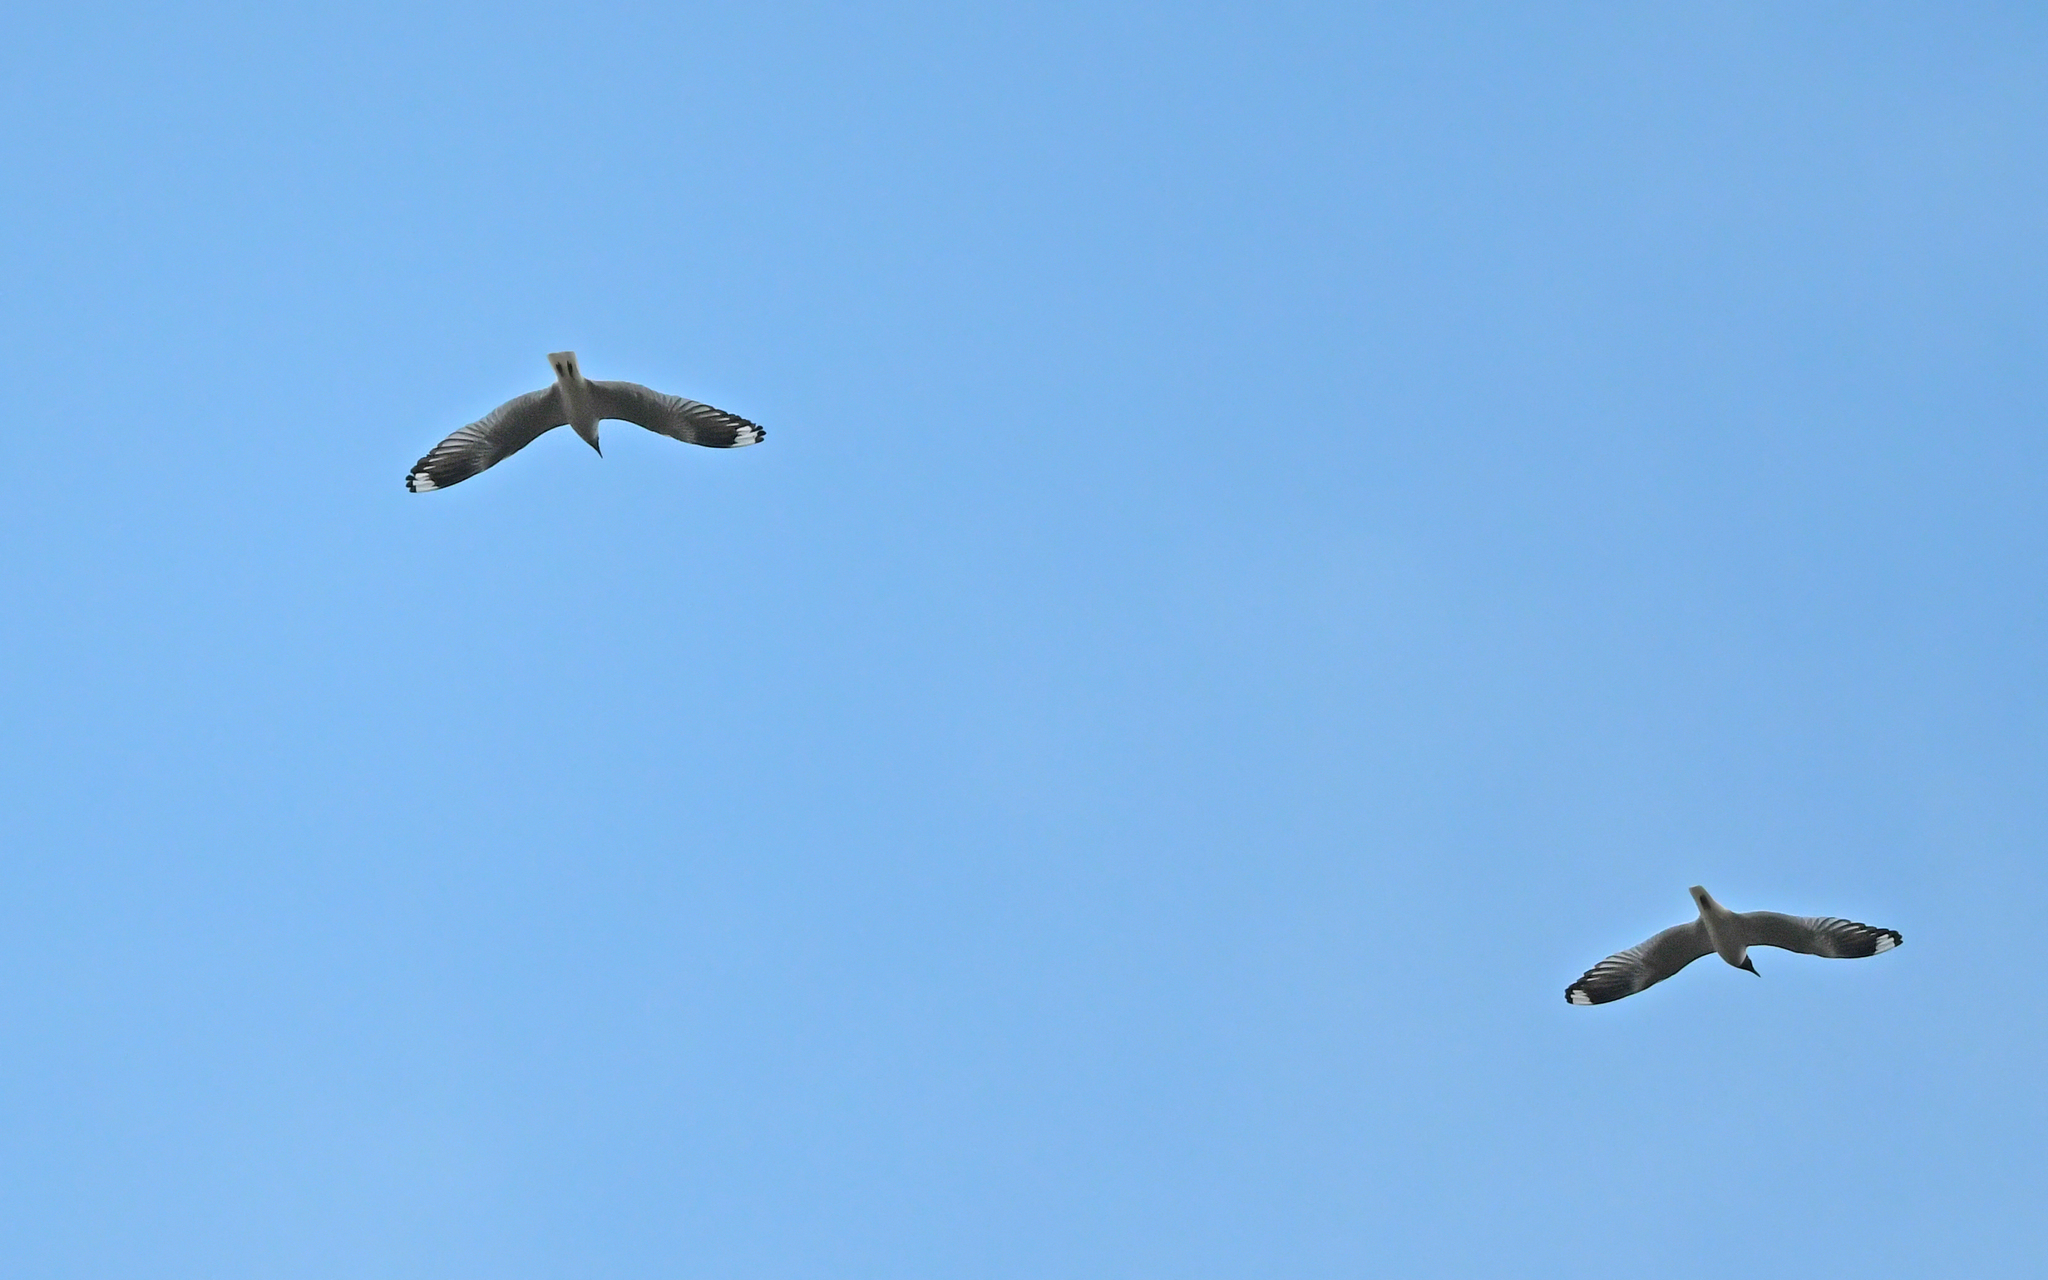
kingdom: Animalia
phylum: Chordata
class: Aves
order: Charadriiformes
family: Laridae
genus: Chroicocephalus
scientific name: Chroicocephalus serranus
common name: Andean gull
